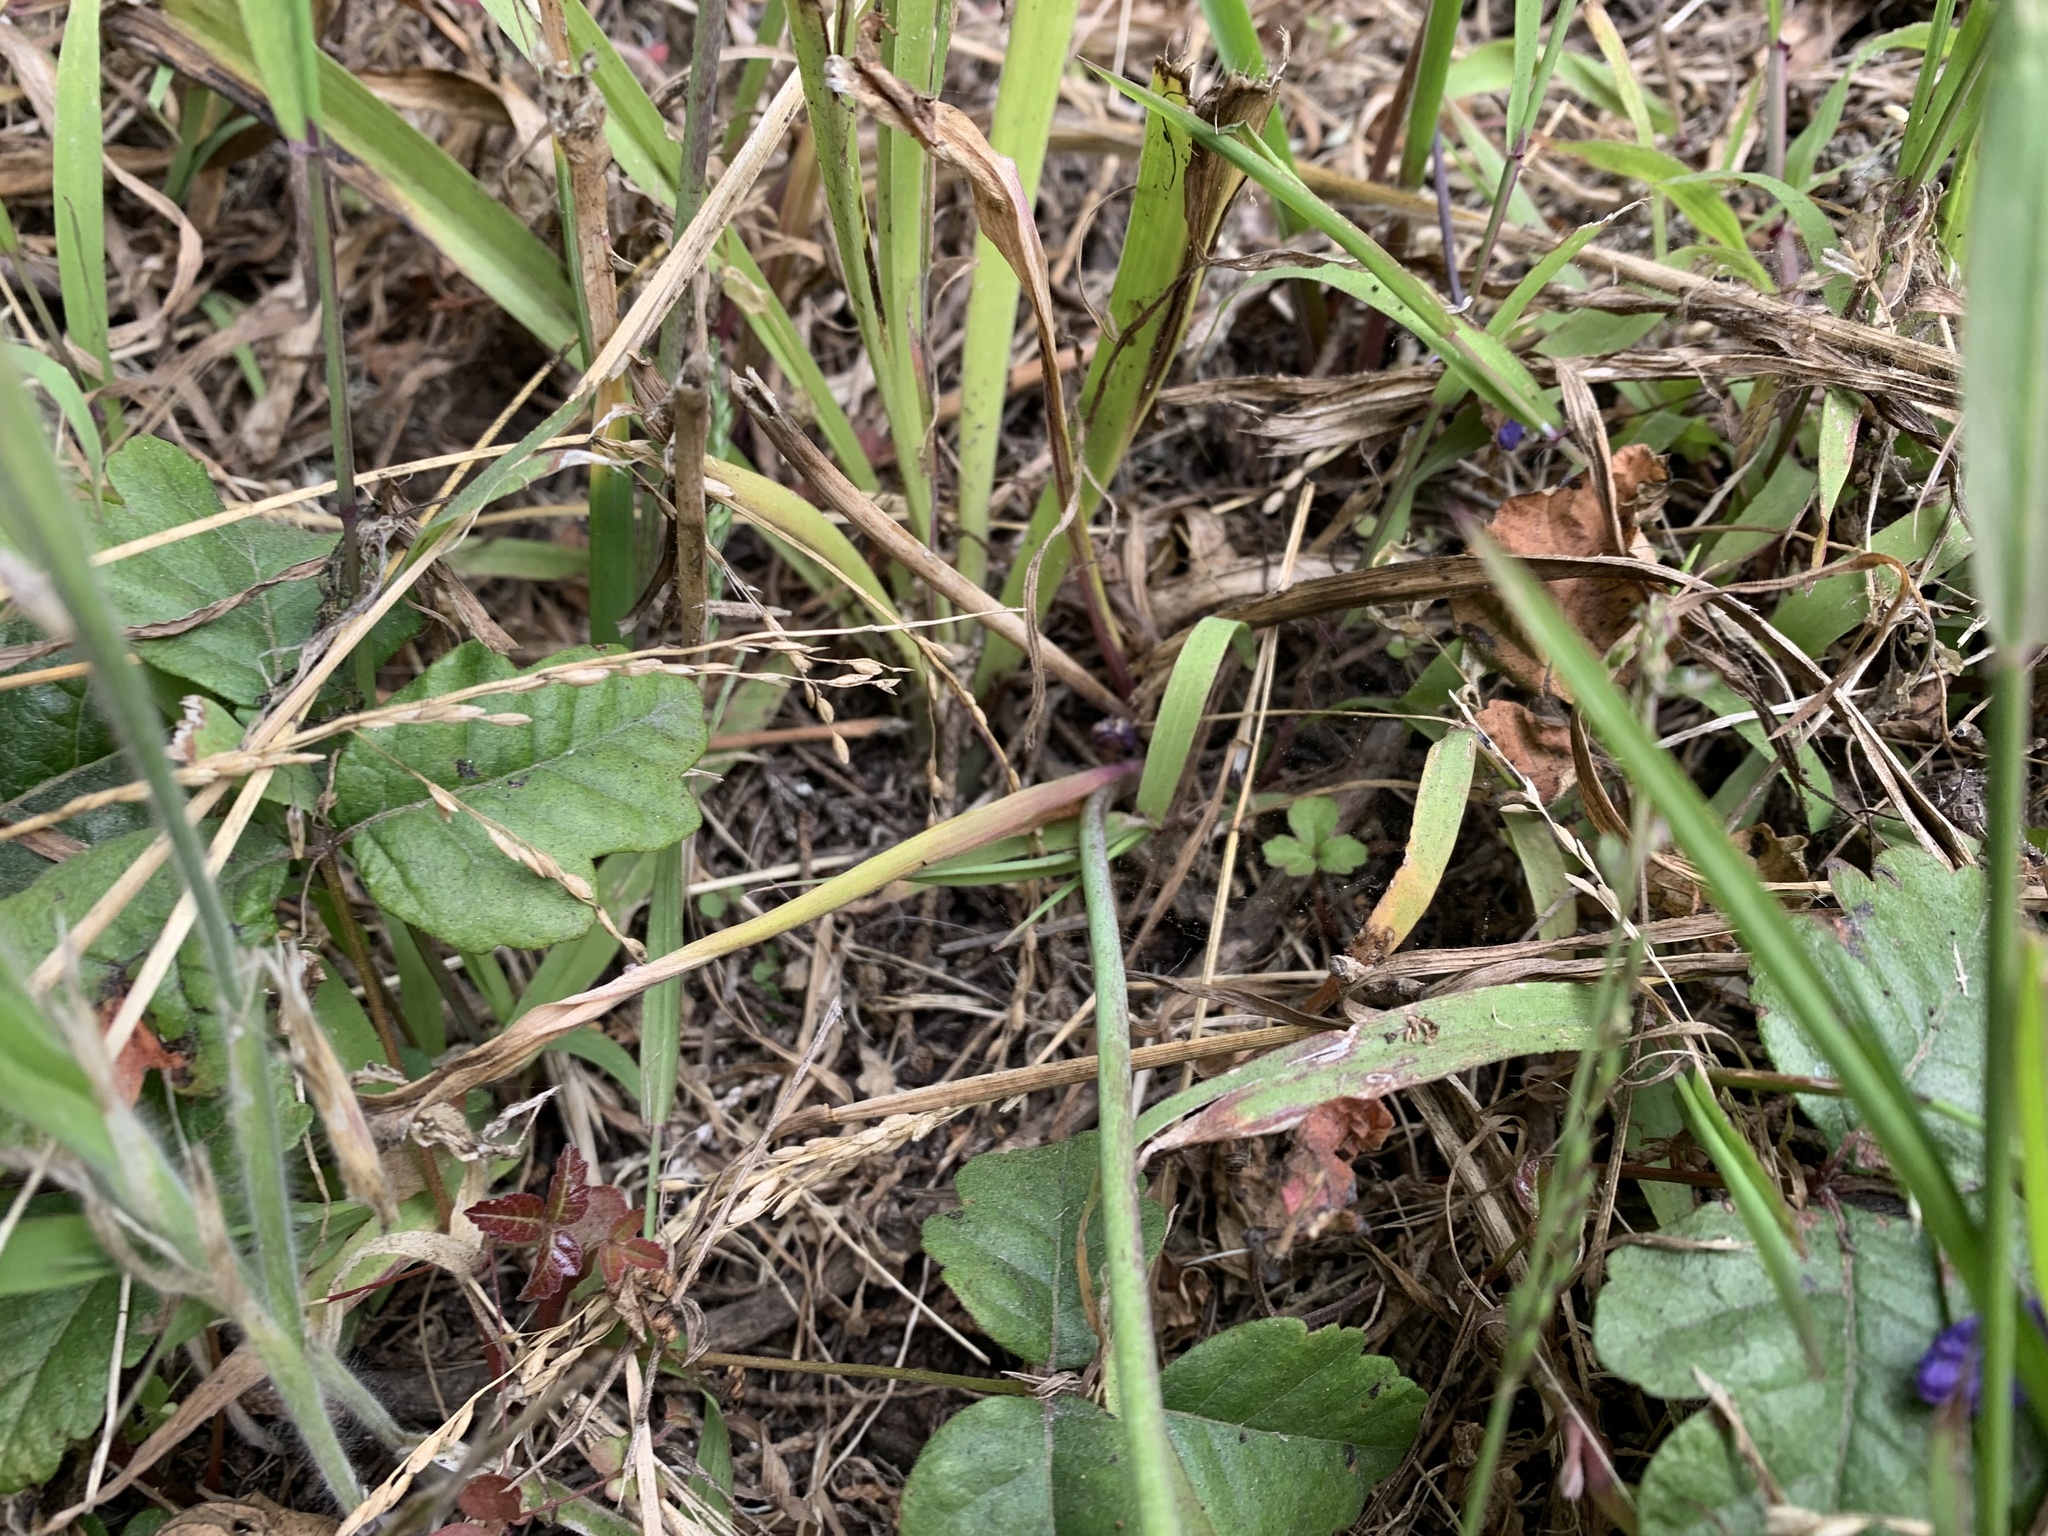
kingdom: Plantae
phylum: Tracheophyta
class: Liliopsida
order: Asparagales
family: Asparagaceae
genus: Dipterostemon
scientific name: Dipterostemon capitatus
